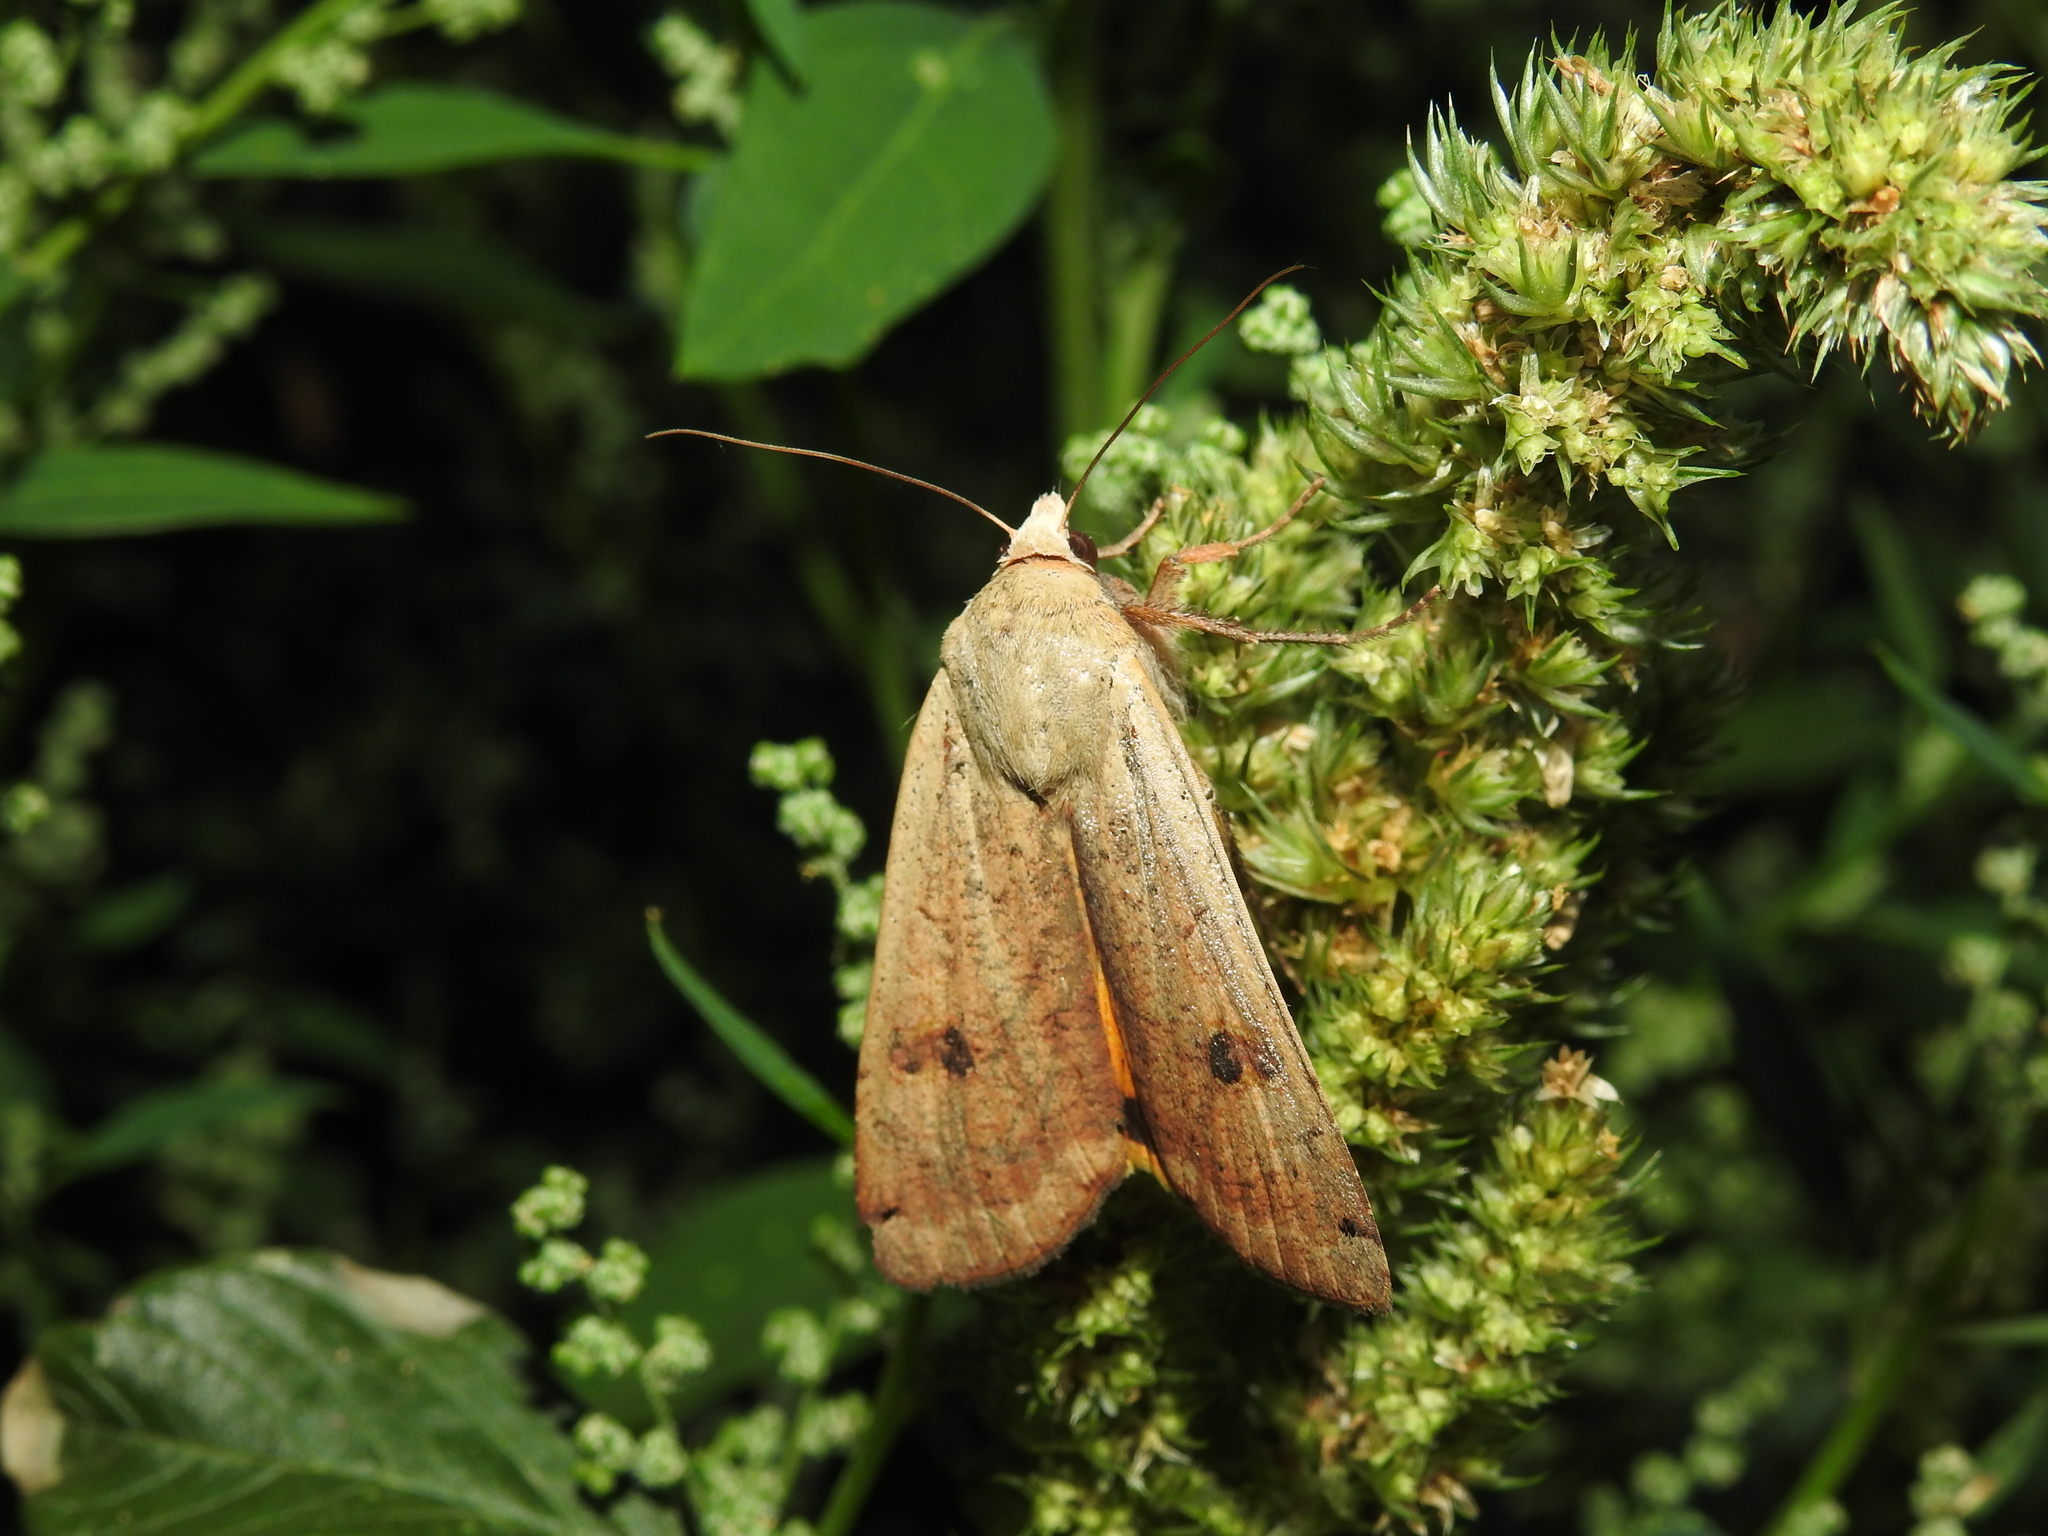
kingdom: Animalia
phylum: Arthropoda
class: Insecta
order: Lepidoptera
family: Noctuidae
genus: Noctua
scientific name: Noctua pronuba
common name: Large yellow underwing
